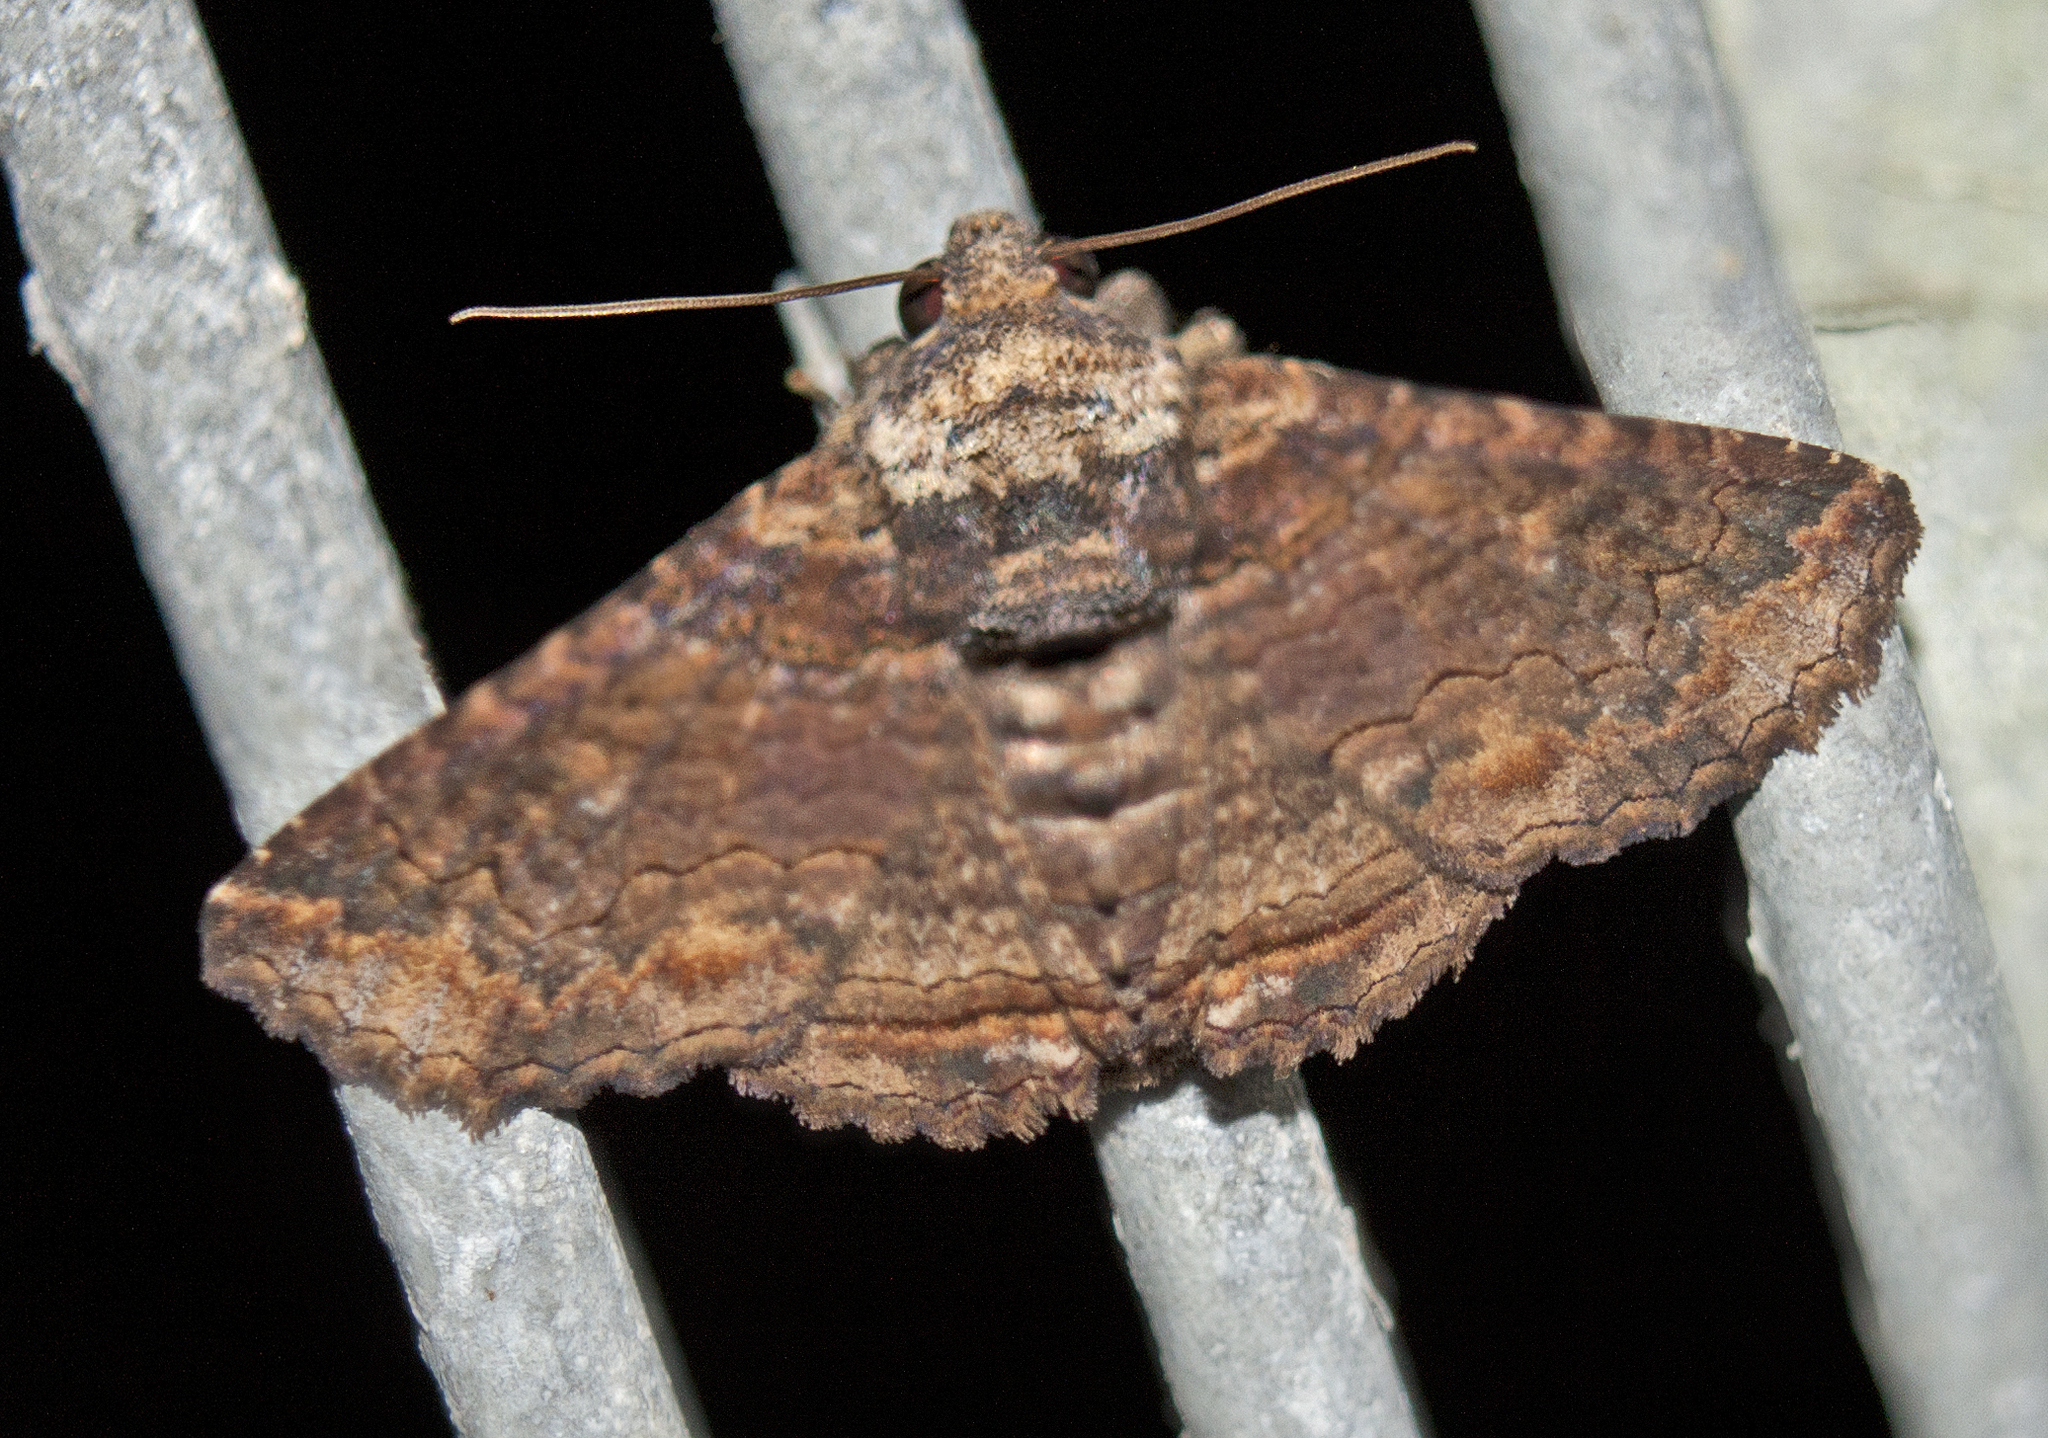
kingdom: Animalia
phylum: Arthropoda
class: Insecta
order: Lepidoptera
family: Erebidae
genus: Pericyma
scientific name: Pericyma cruegeri
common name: Poinciana looper
